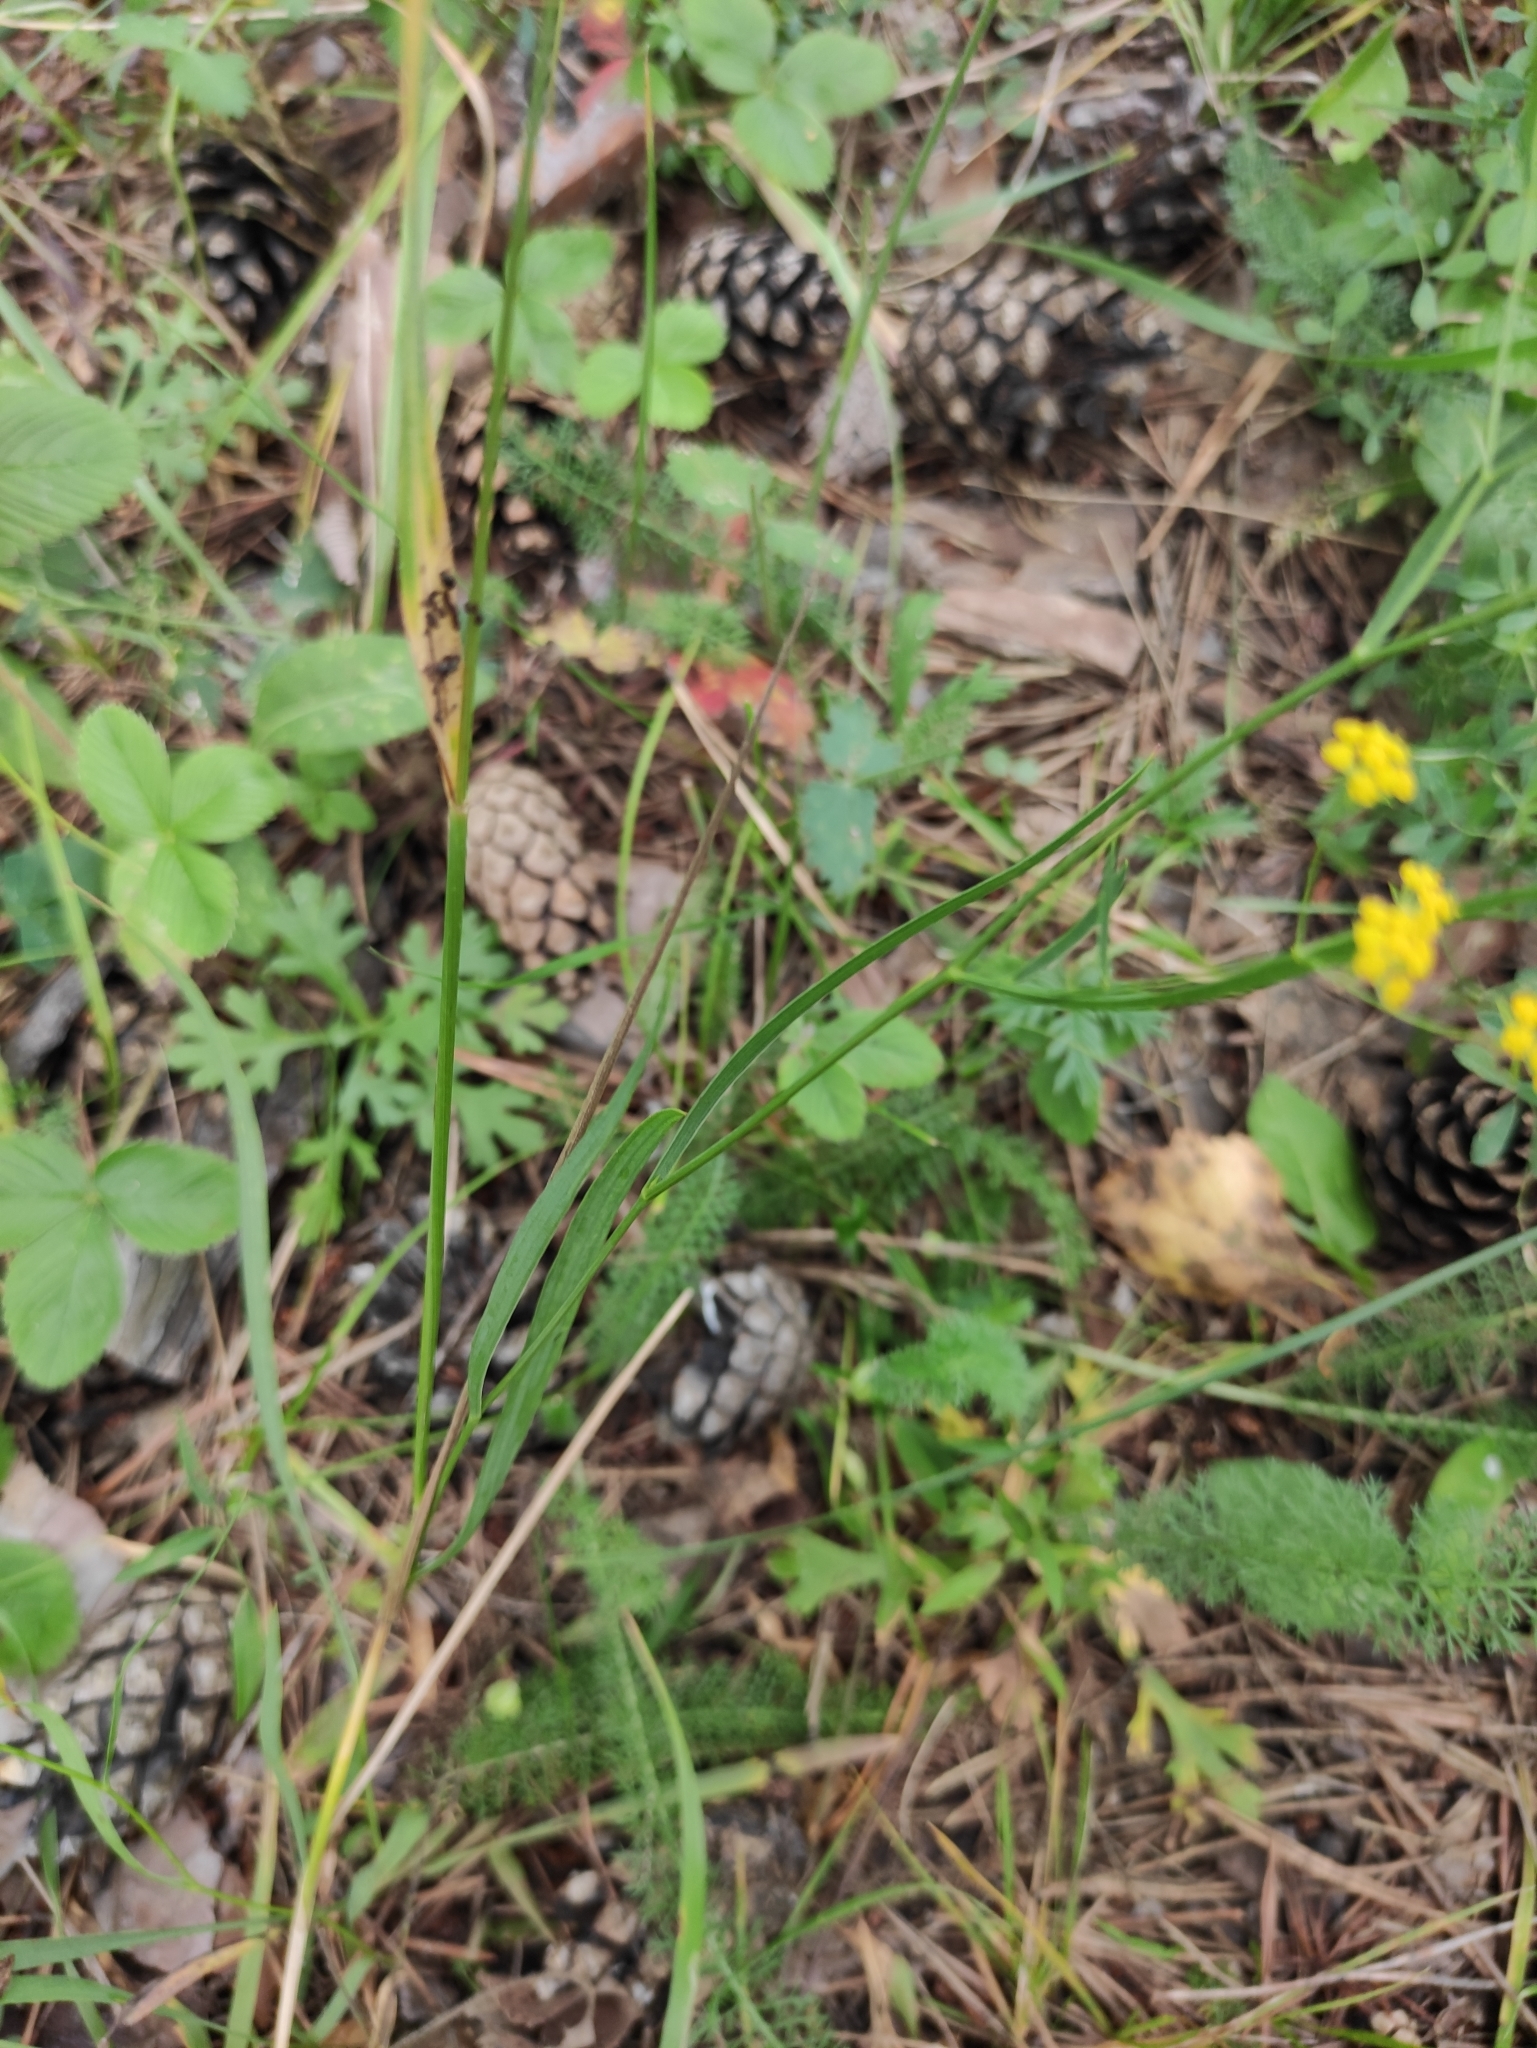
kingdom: Plantae
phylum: Tracheophyta
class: Magnoliopsida
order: Apiales
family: Apiaceae
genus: Bupleurum
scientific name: Bupleurum scorzonerifolium
